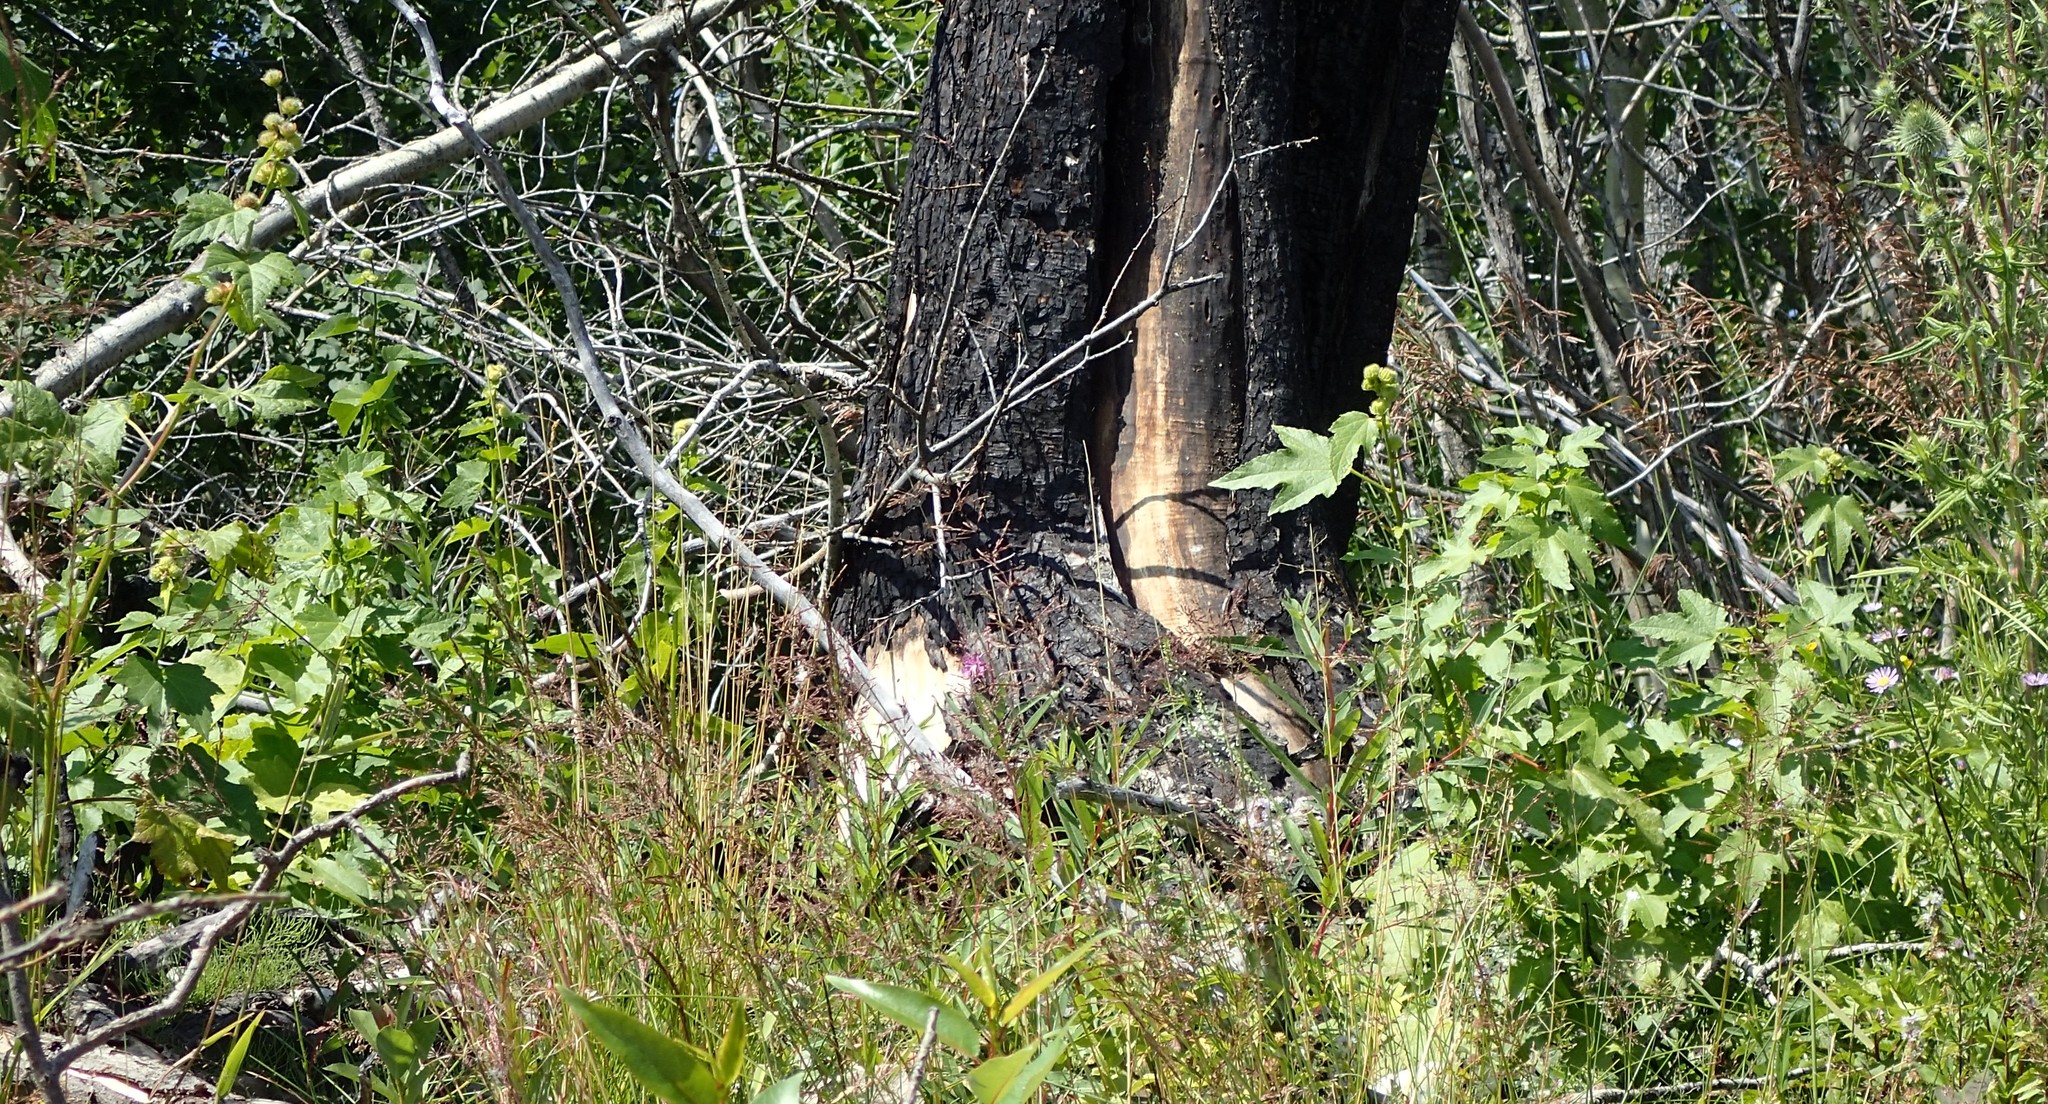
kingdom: Plantae
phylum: Tracheophyta
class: Magnoliopsida
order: Malvales
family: Malvaceae
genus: Iliamna
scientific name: Iliamna rivularis
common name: Wild hollyhock
